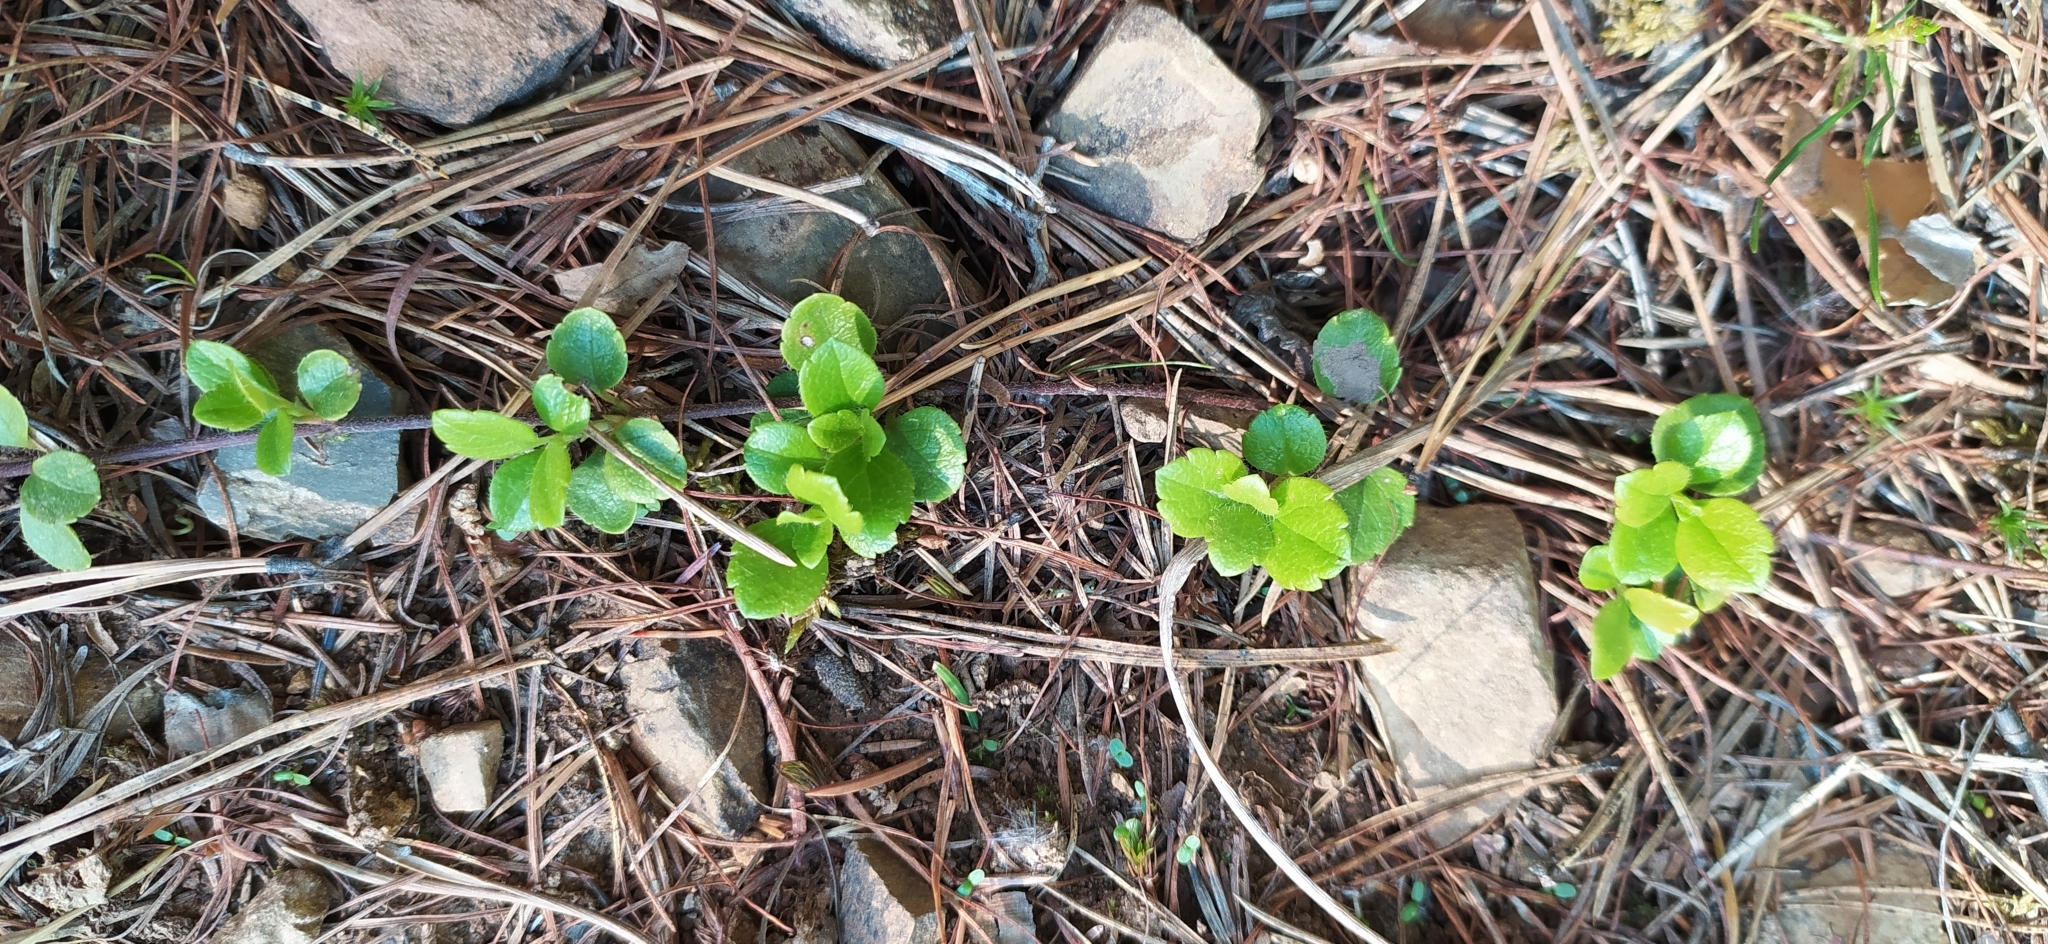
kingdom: Plantae
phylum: Tracheophyta
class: Magnoliopsida
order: Dipsacales
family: Caprifoliaceae
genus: Linnaea
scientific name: Linnaea borealis
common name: Twinflower
